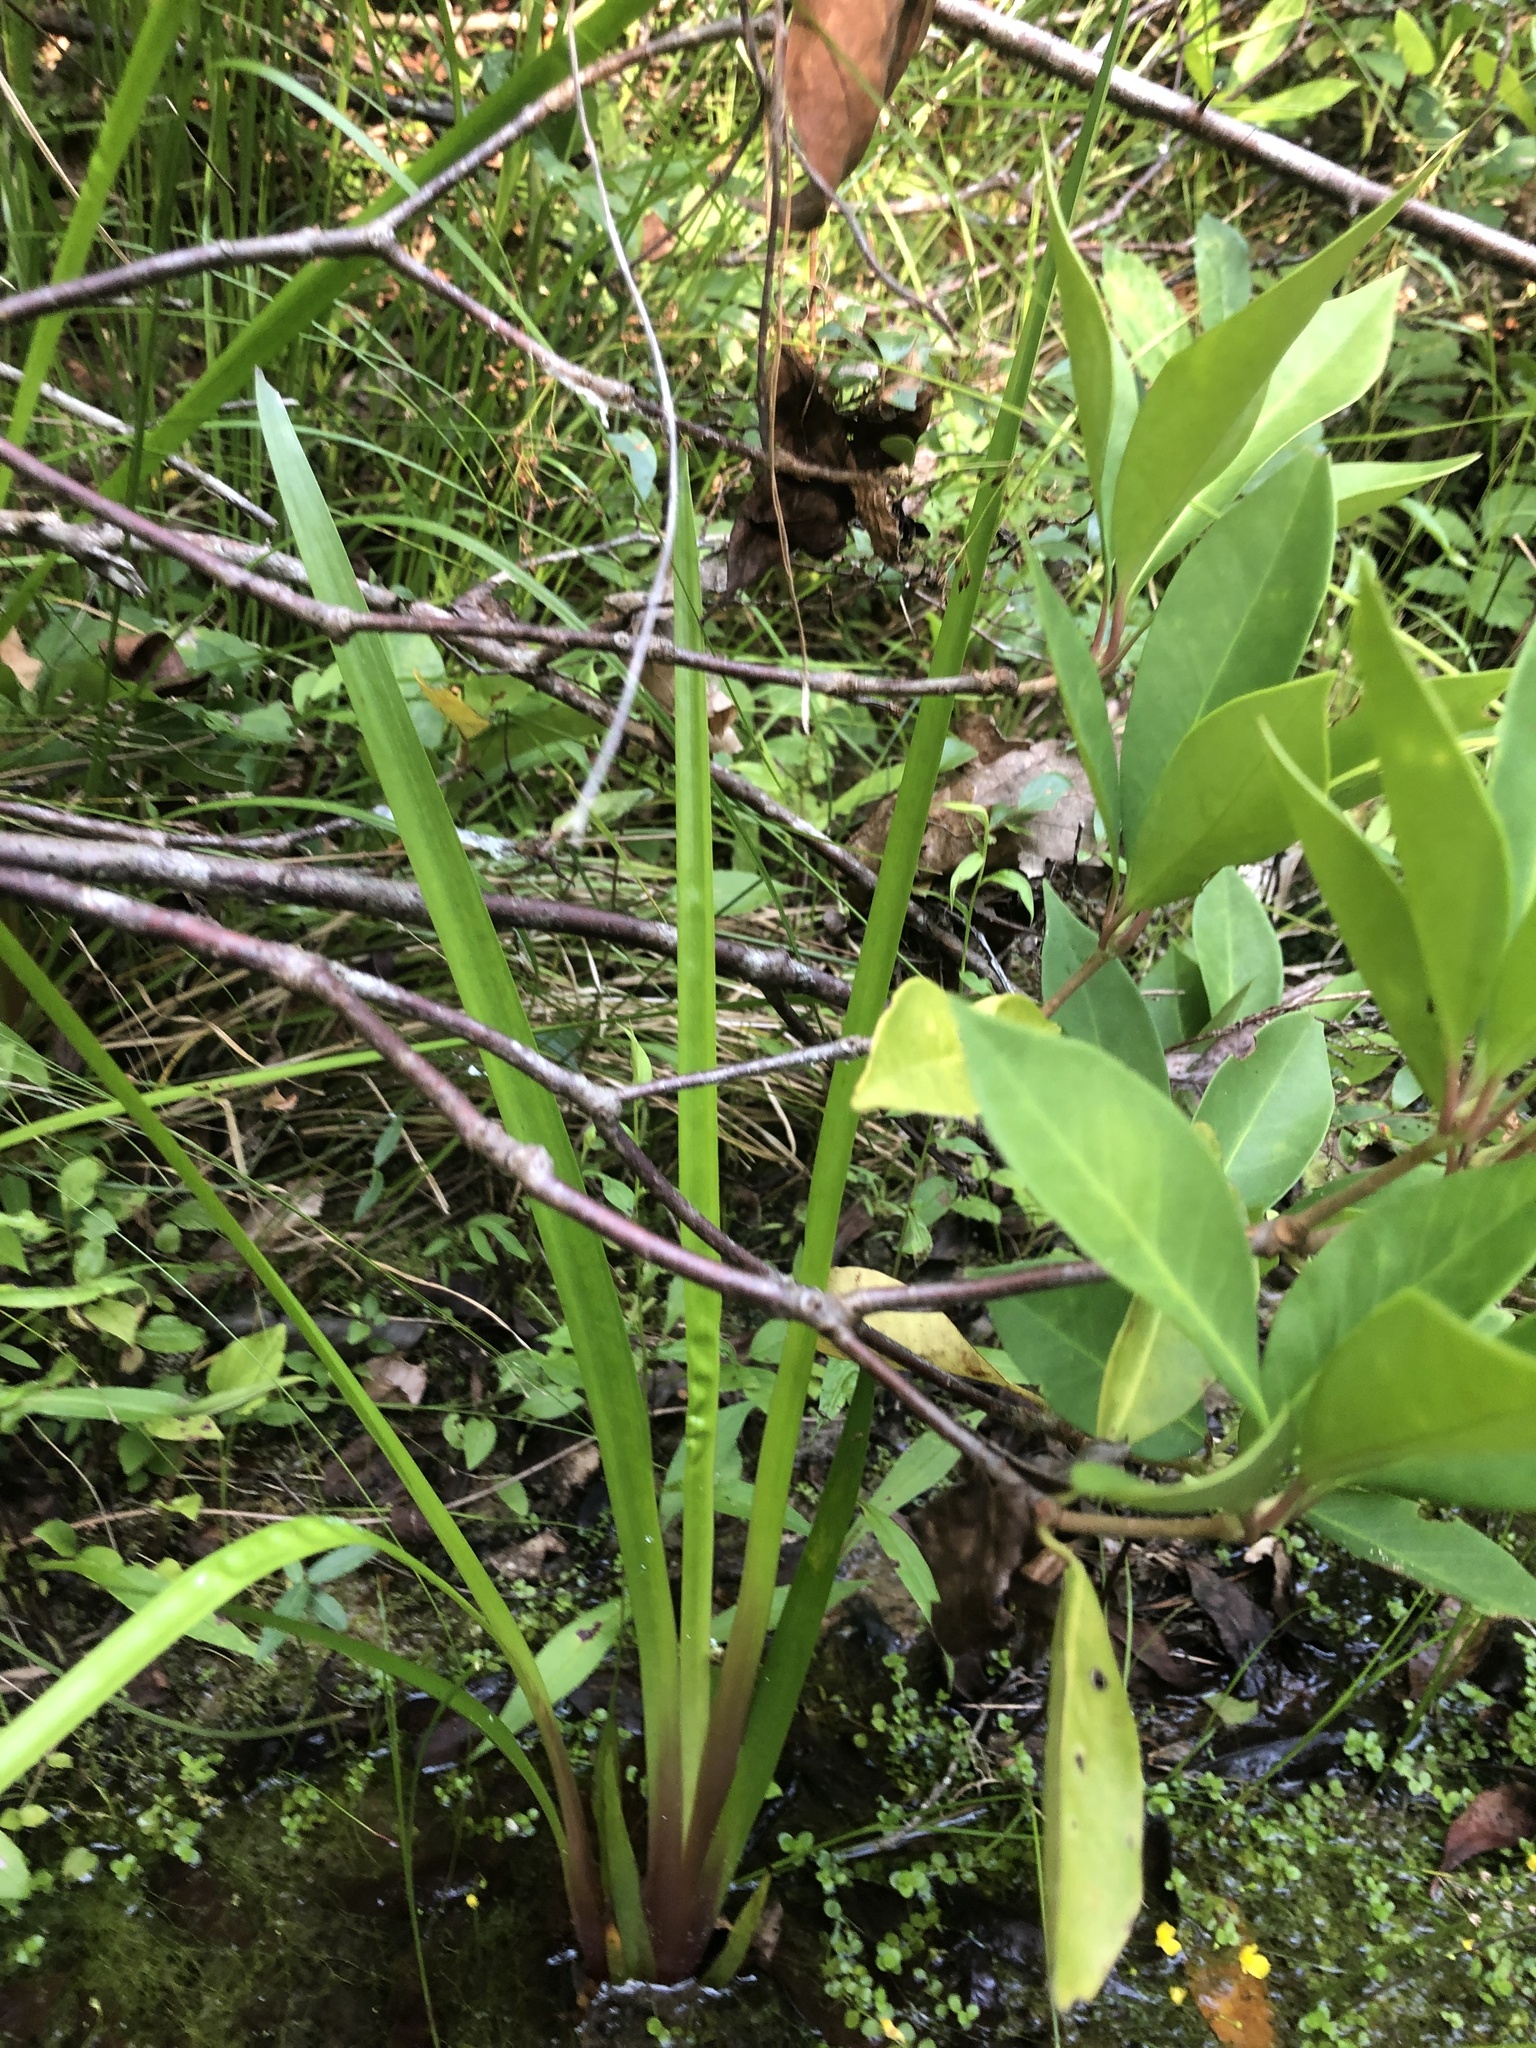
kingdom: Plantae
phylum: Tracheophyta
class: Liliopsida
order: Poales
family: Xyridaceae
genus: Xyris
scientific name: Xyris laxifolia
